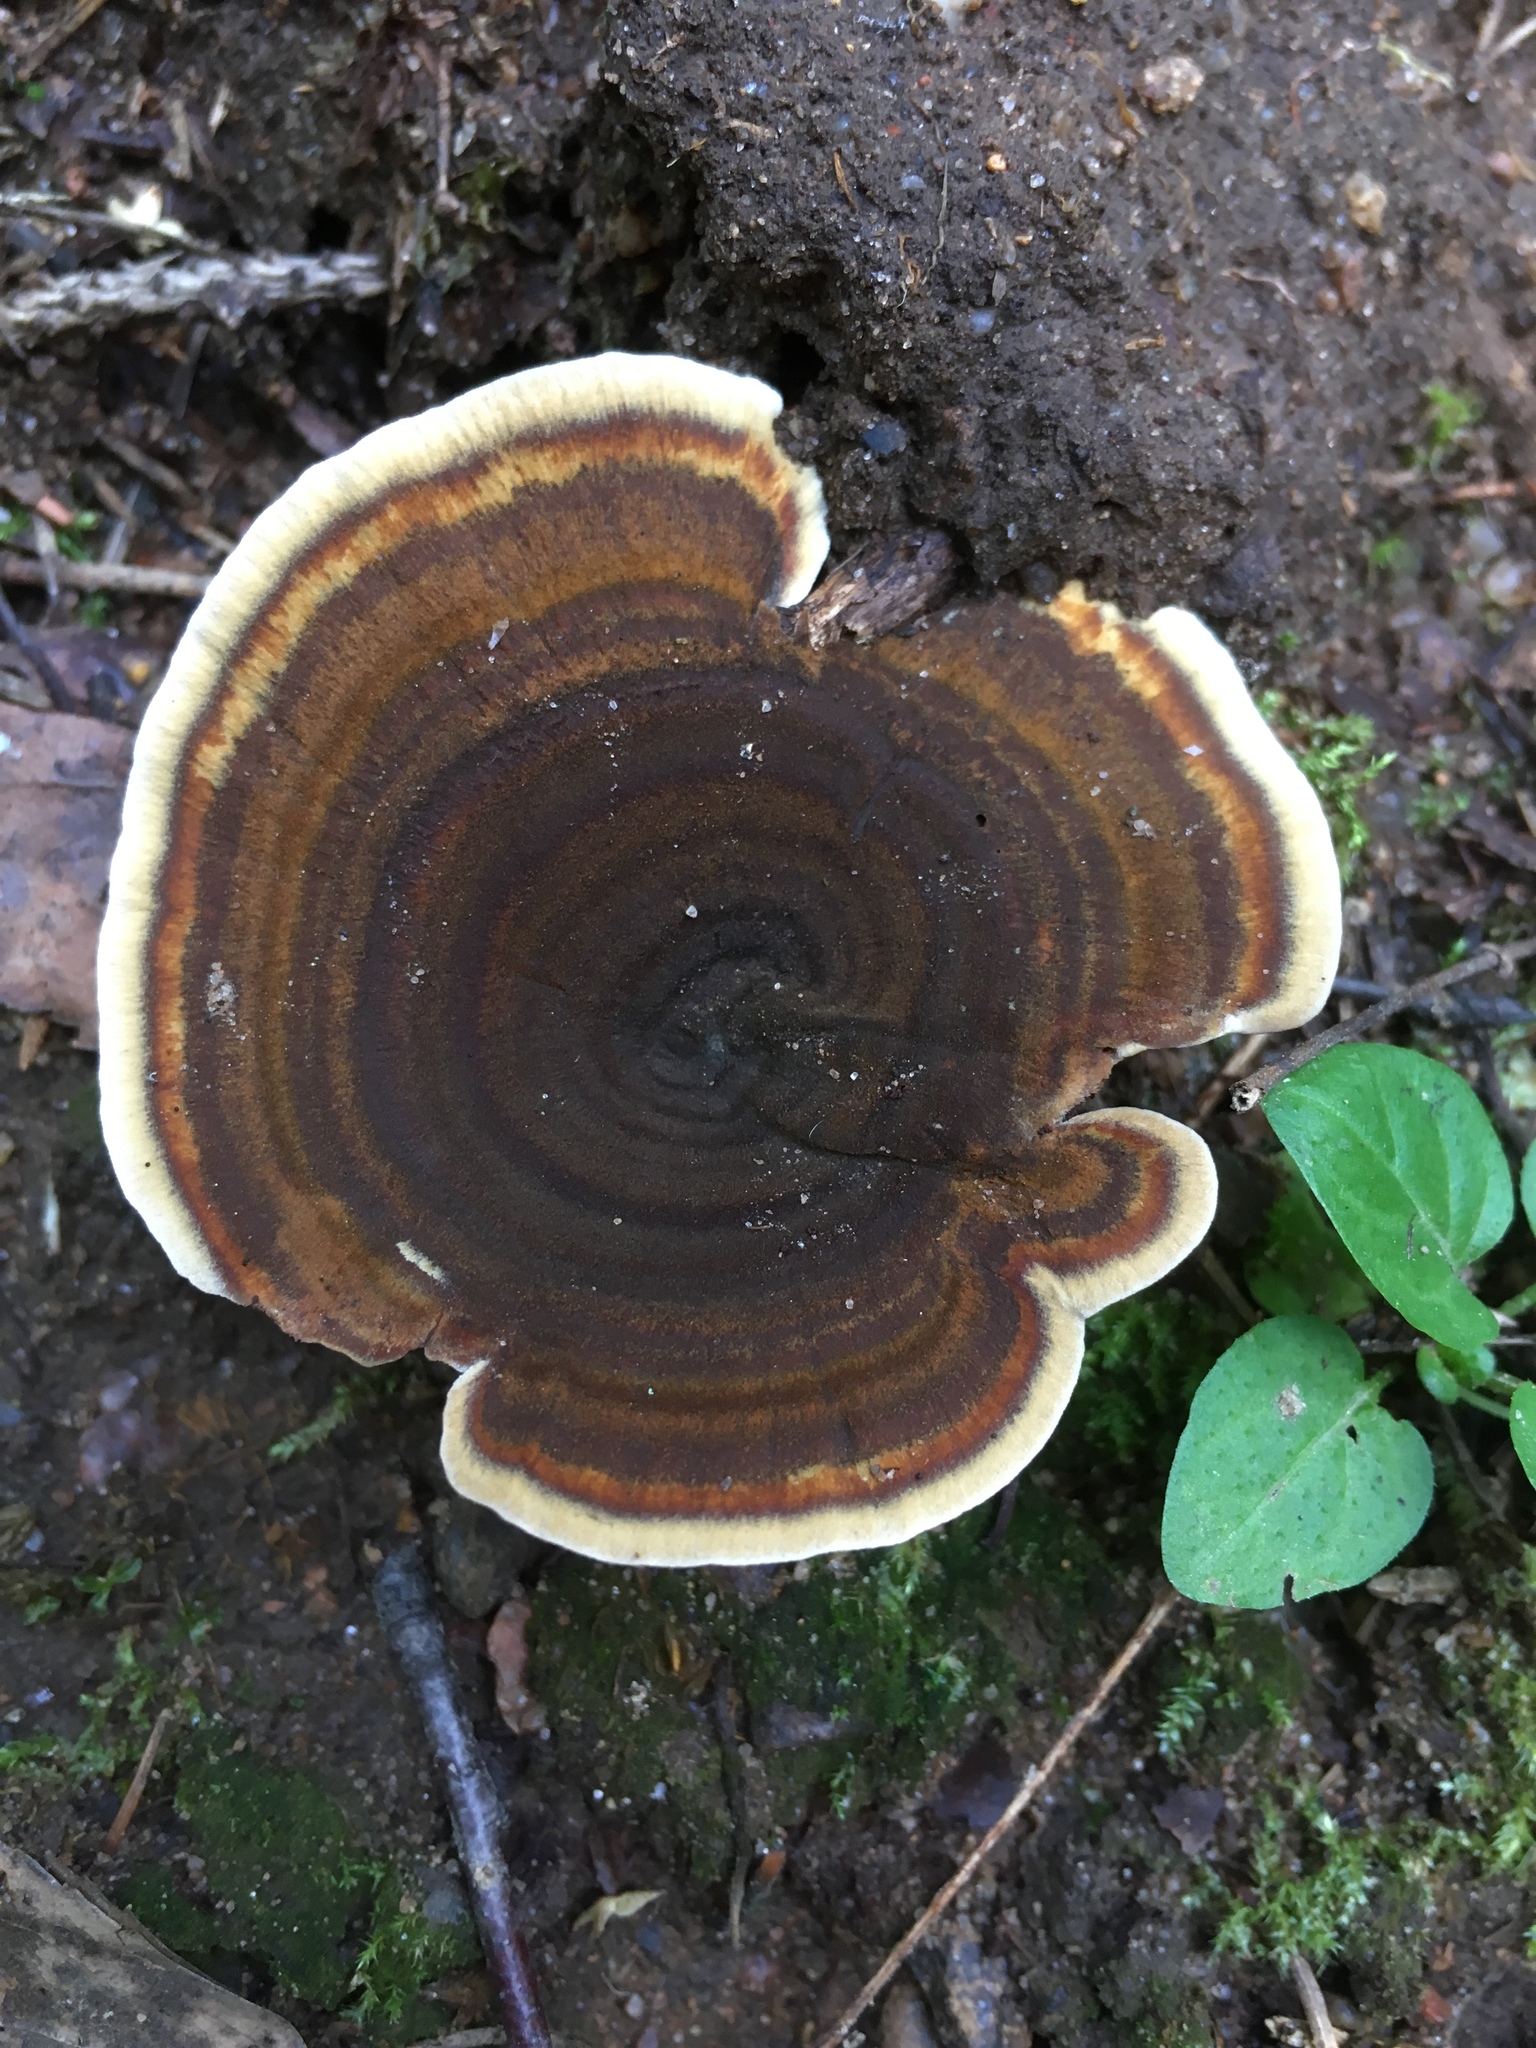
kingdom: Fungi
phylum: Basidiomycota
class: Agaricomycetes
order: Hymenochaetales
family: Hymenochaetaceae
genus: Coltricia
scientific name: Coltricia perennis
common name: Tiger's eye
